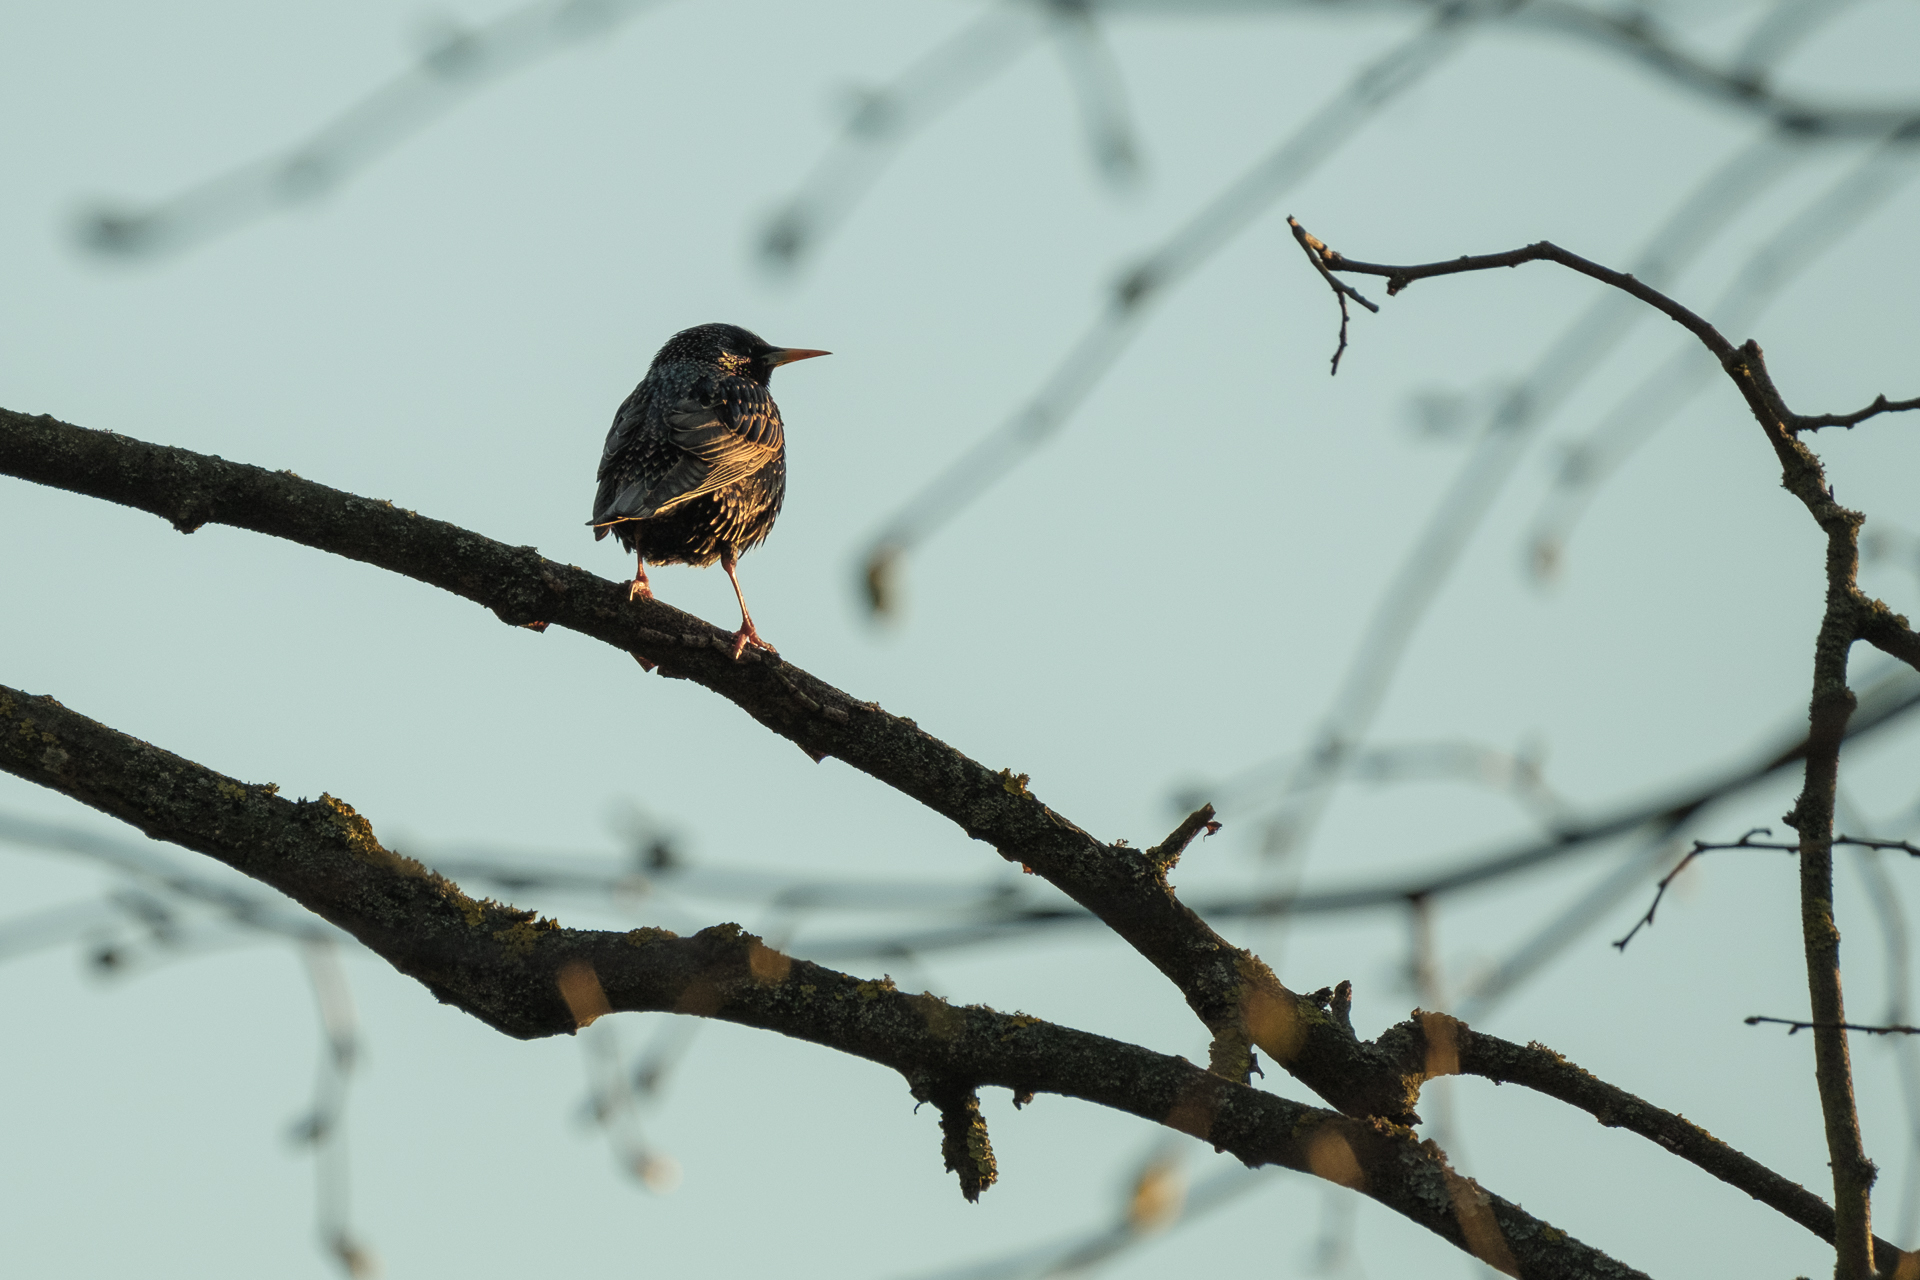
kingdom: Animalia
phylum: Chordata
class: Aves
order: Passeriformes
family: Sturnidae
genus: Sturnus
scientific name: Sturnus vulgaris
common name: Common starling
